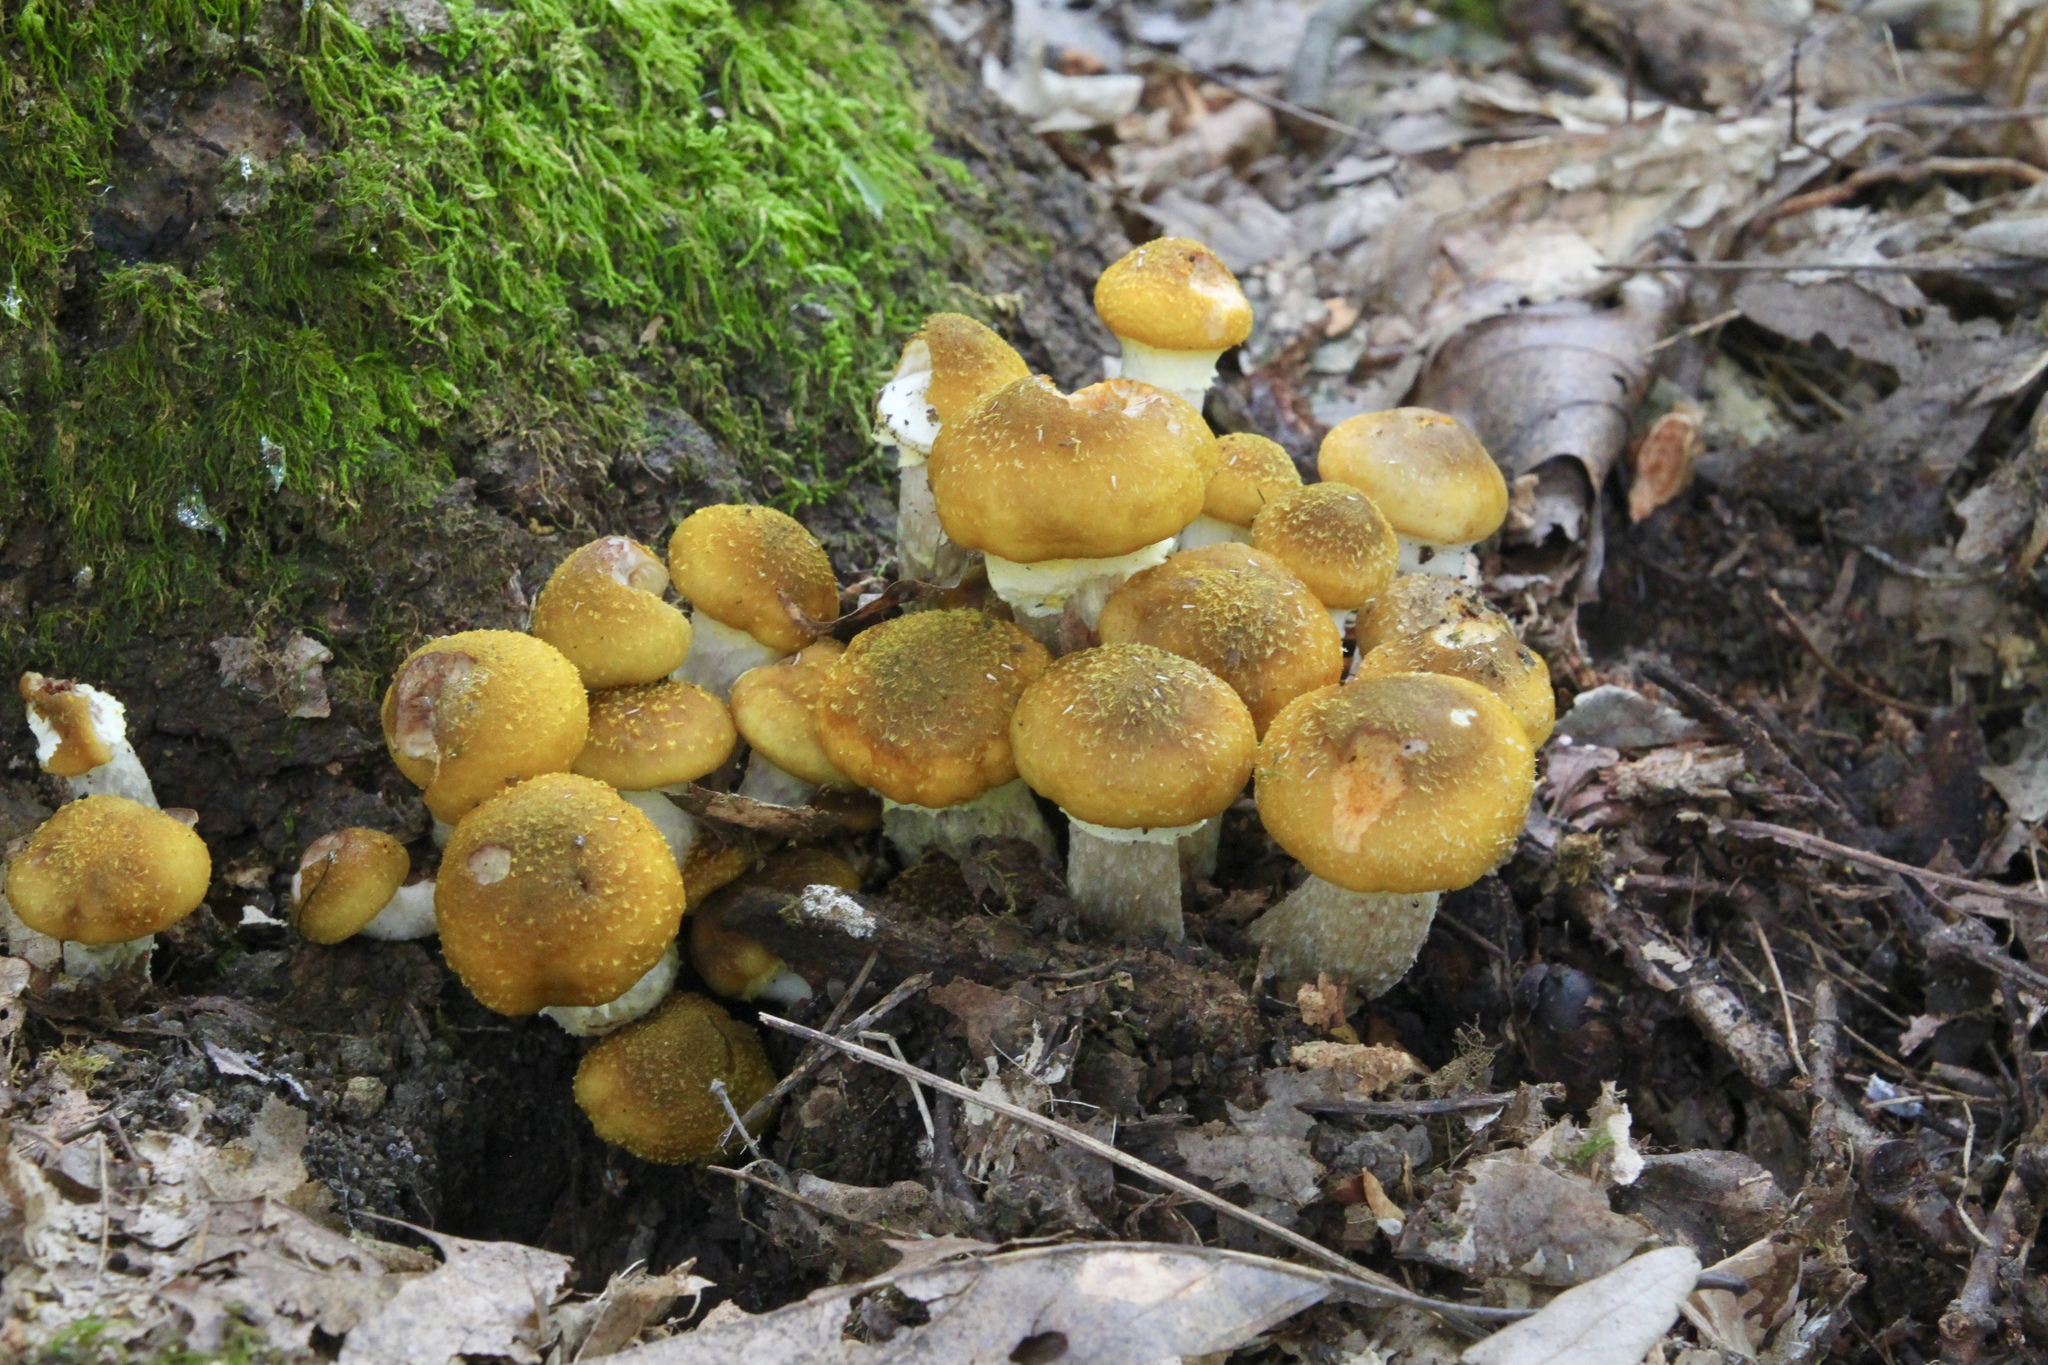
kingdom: Fungi
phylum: Basidiomycota
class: Agaricomycetes
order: Agaricales
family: Physalacriaceae
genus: Armillaria
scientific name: Armillaria mellea
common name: Honey fungus
